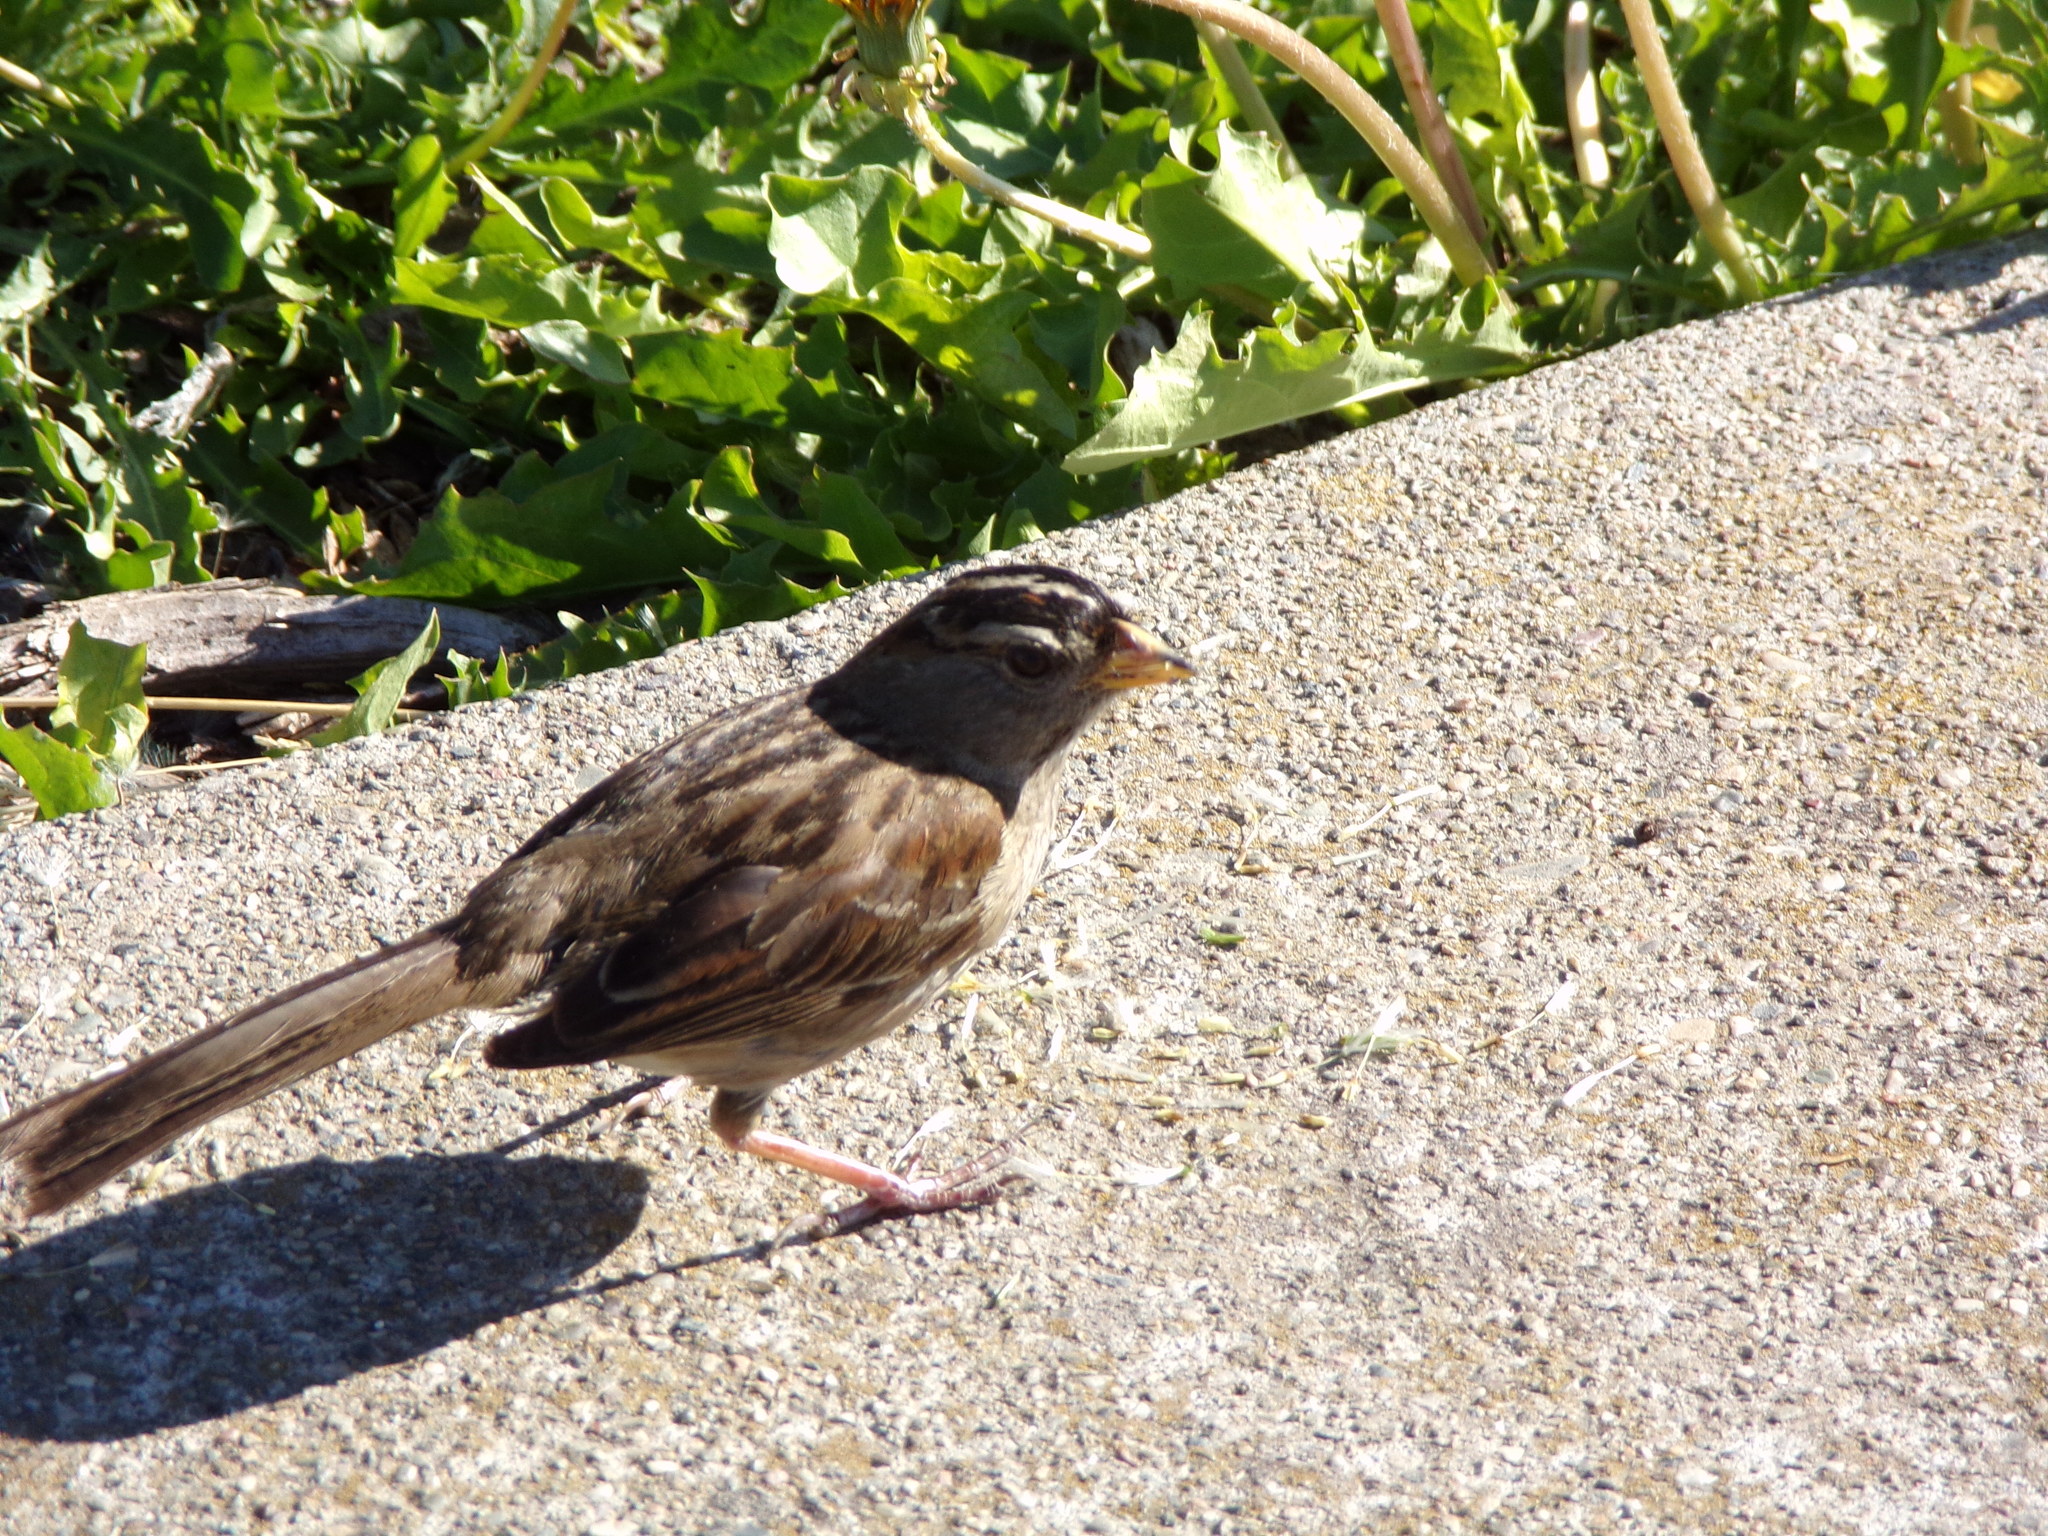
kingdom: Animalia
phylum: Chordata
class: Aves
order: Passeriformes
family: Passerellidae
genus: Zonotrichia
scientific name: Zonotrichia leucophrys
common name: White-crowned sparrow
